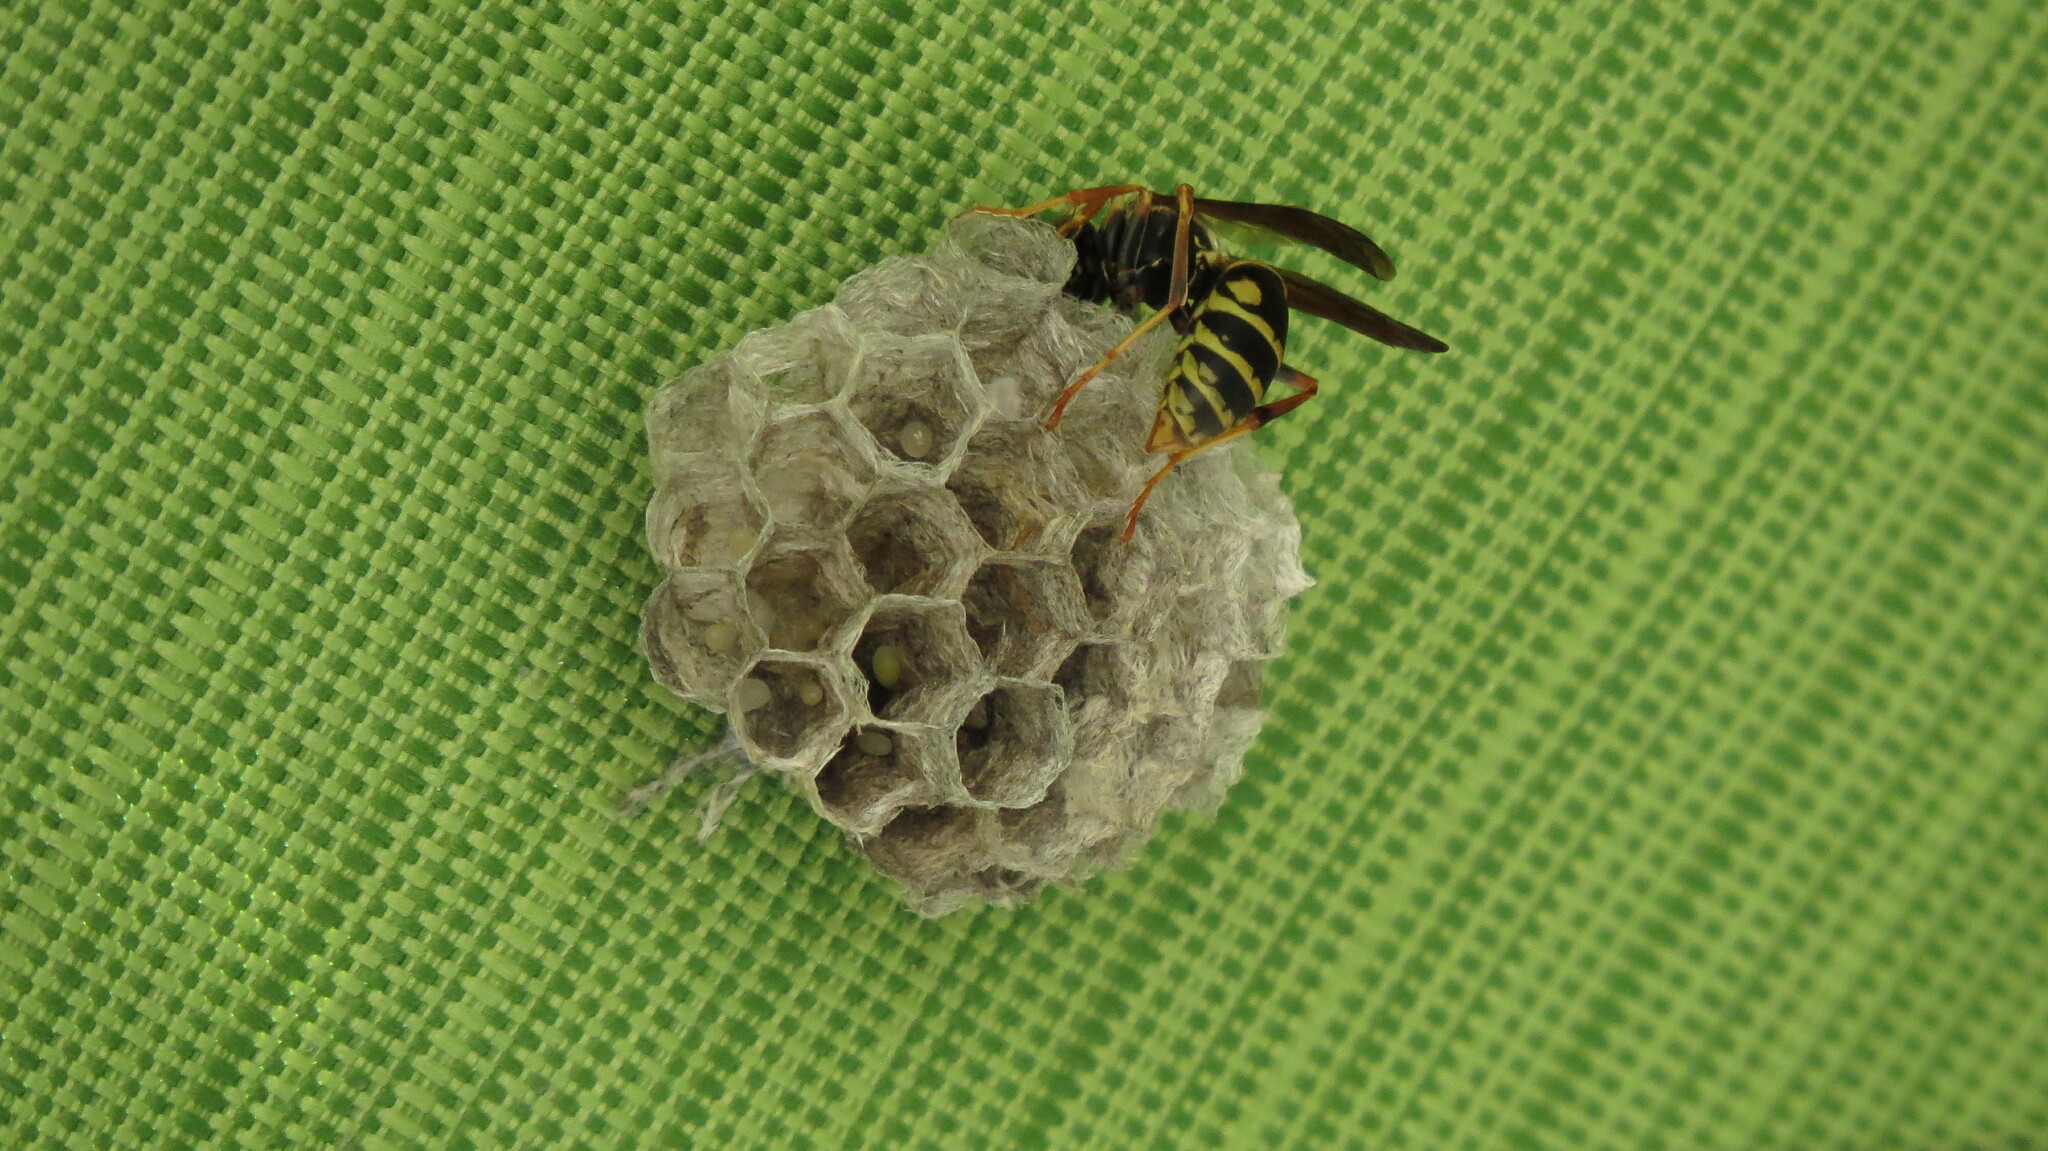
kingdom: Animalia
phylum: Arthropoda
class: Insecta
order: Hymenoptera
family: Eumenidae
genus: Polistes
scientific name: Polistes fuscatus
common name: Dark paper wasp
